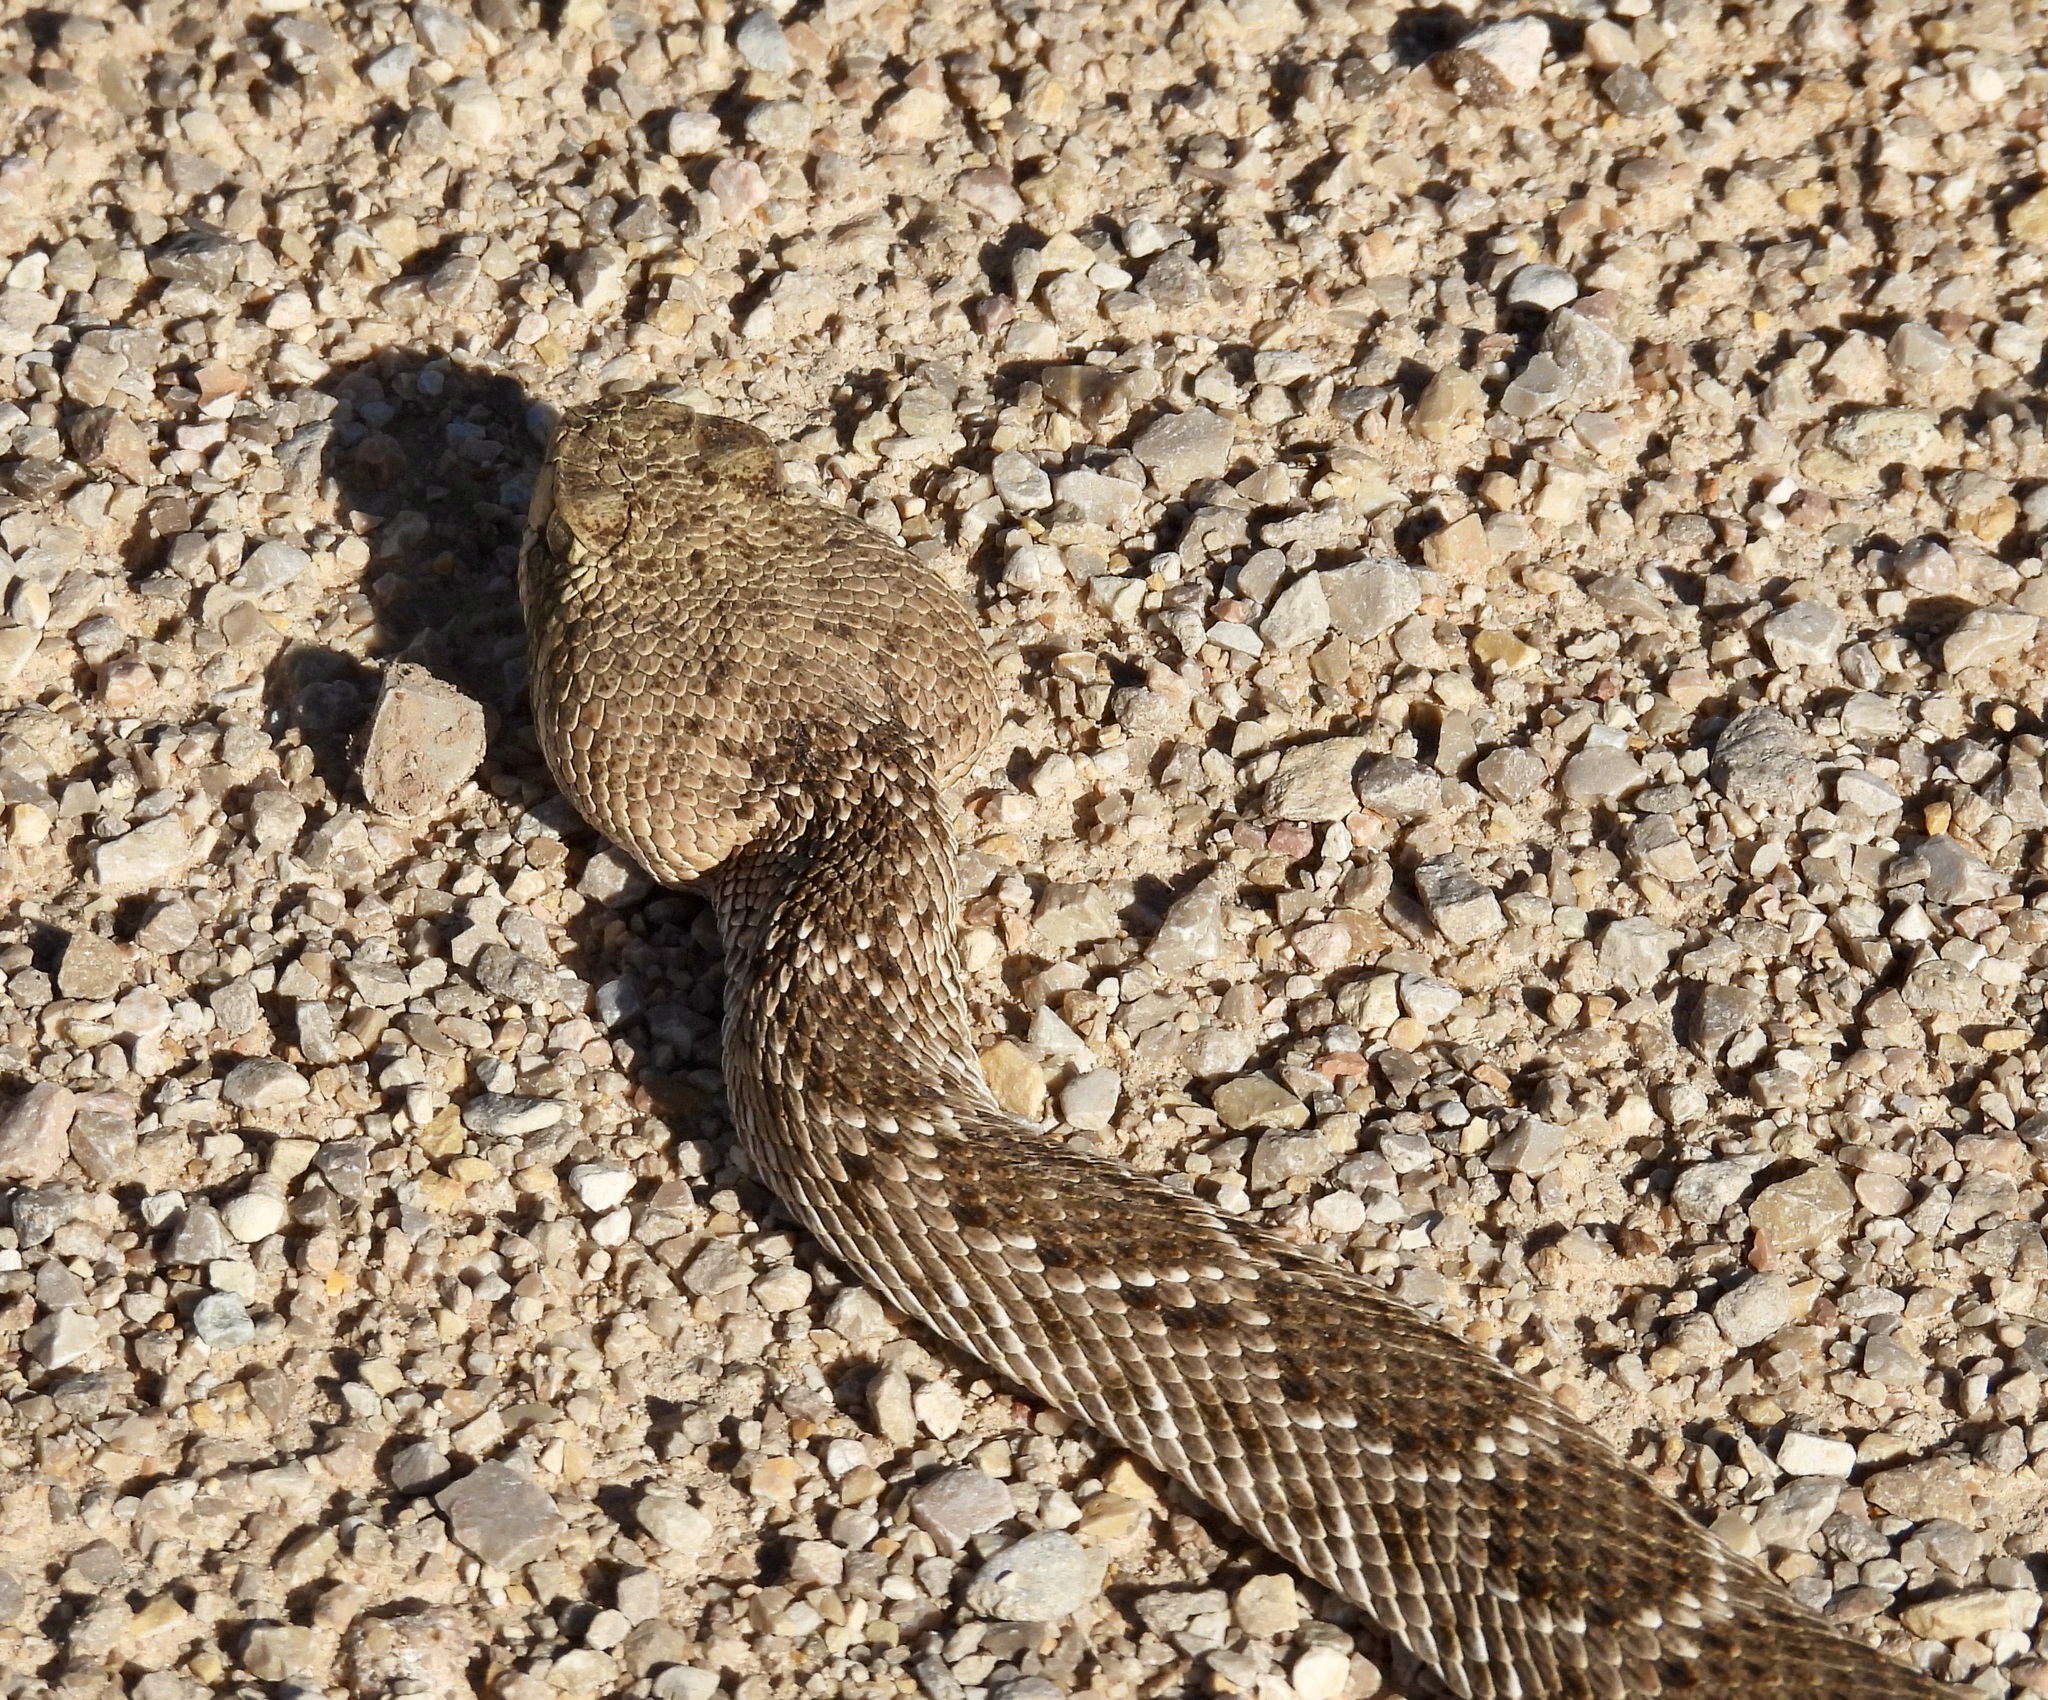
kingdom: Animalia
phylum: Chordata
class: Squamata
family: Viperidae
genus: Crotalus
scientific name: Crotalus atrox
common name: Western diamond-backed rattlesnake
